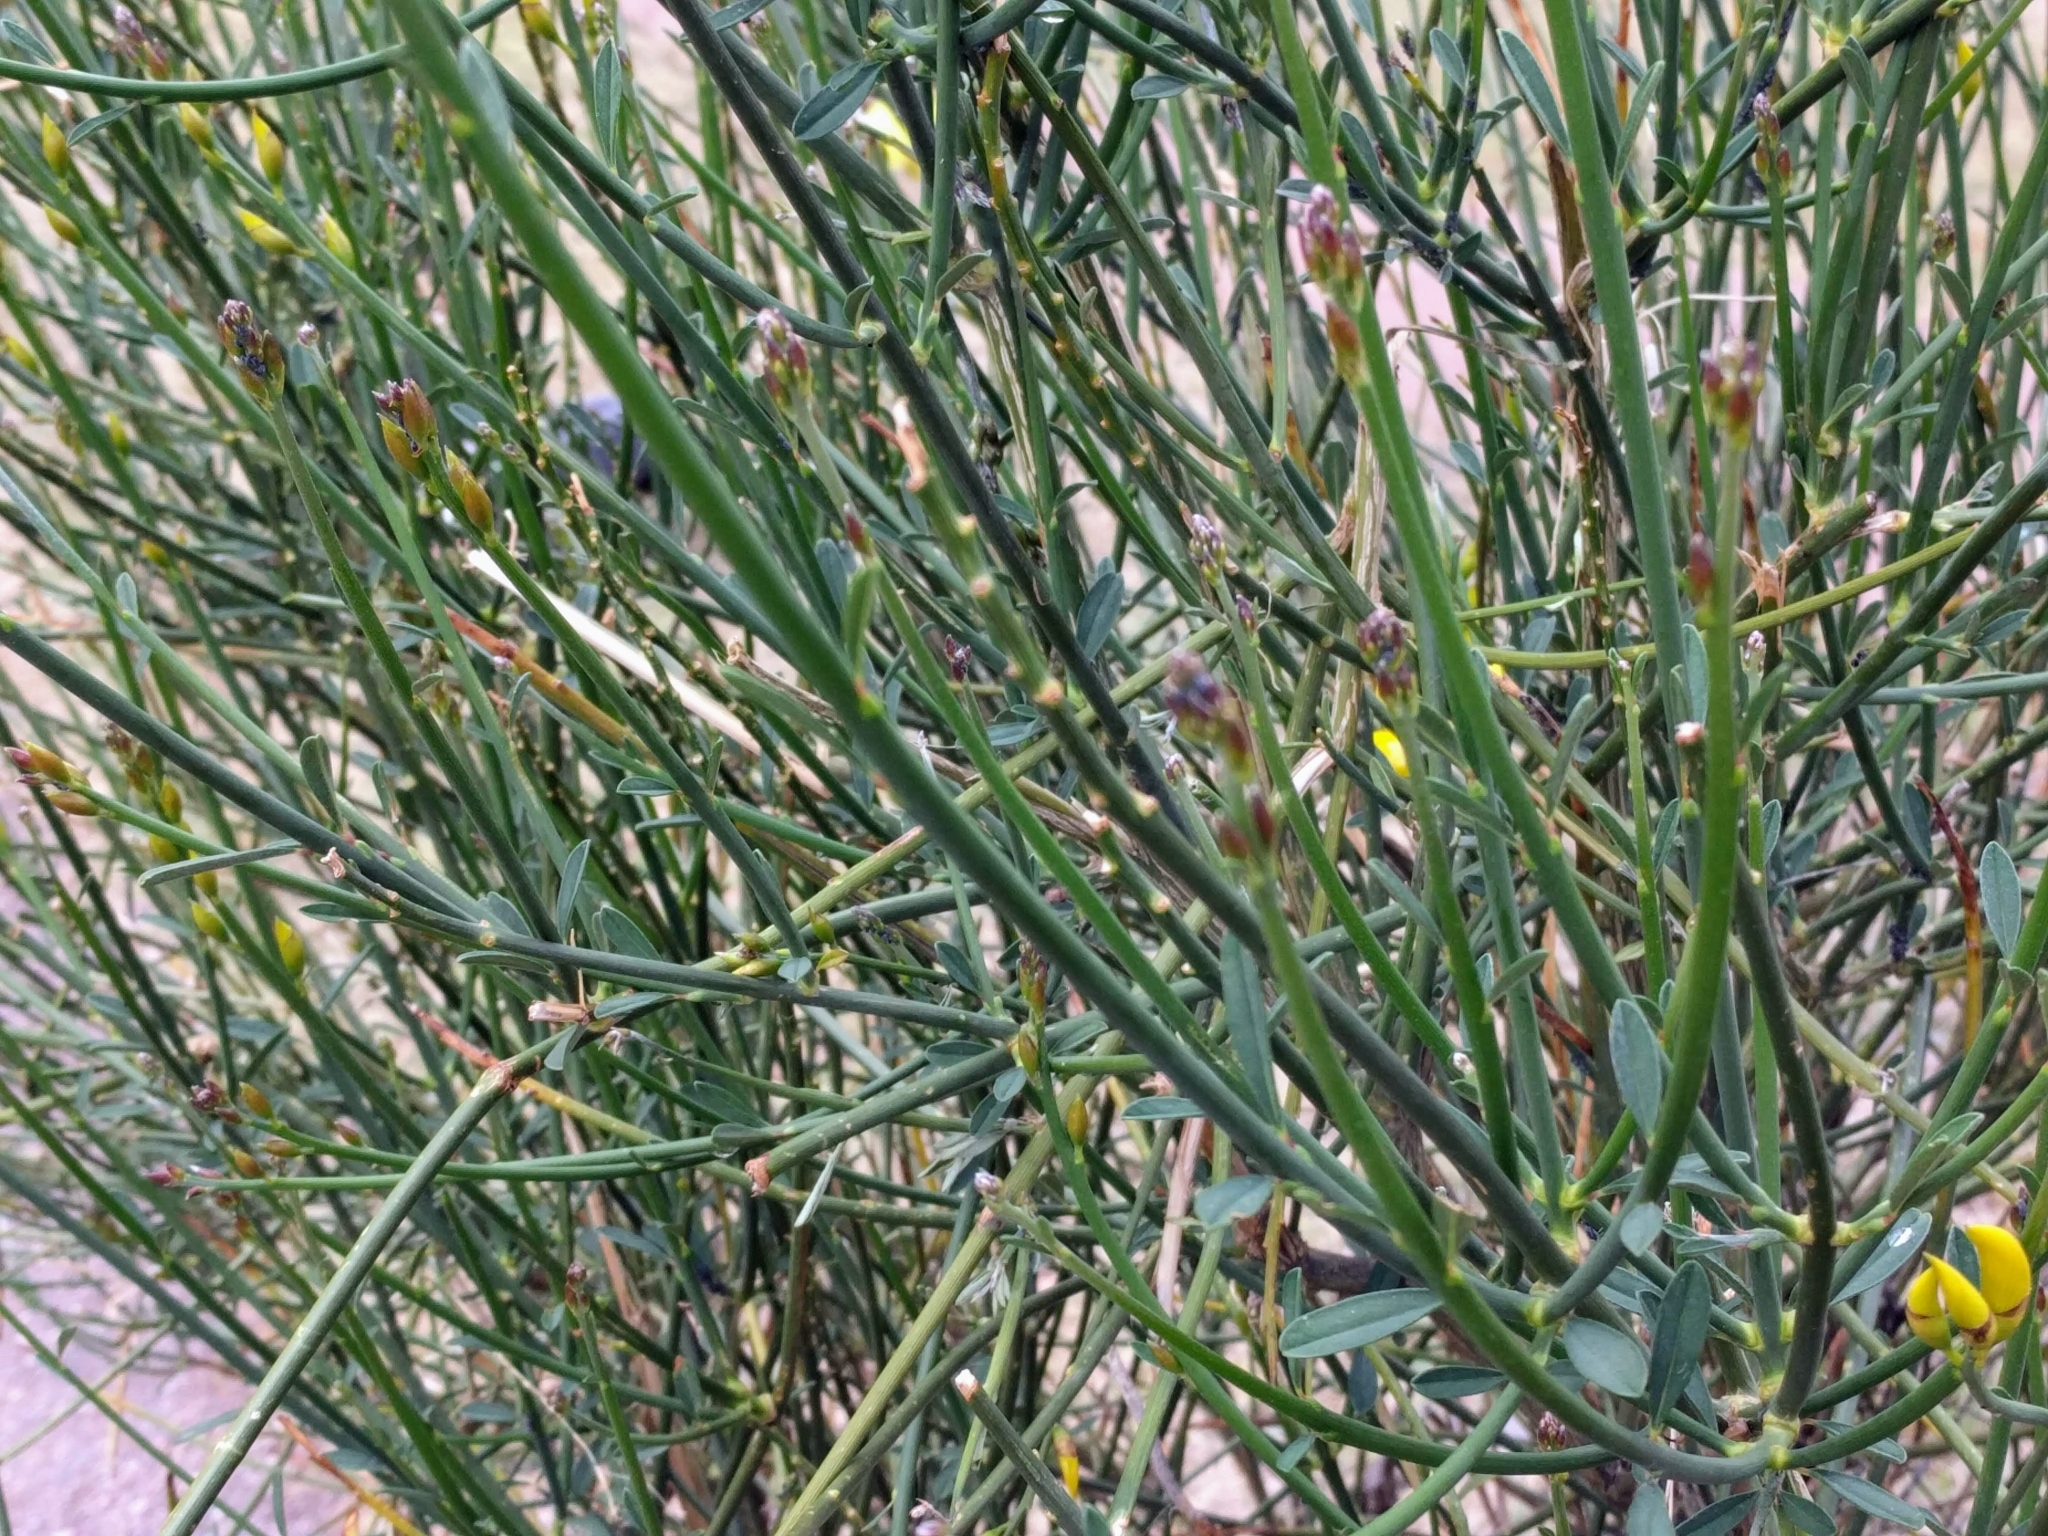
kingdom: Plantae
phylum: Tracheophyta
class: Magnoliopsida
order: Fabales
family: Fabaceae
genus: Spartium
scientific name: Spartium junceum
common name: Spanish broom
